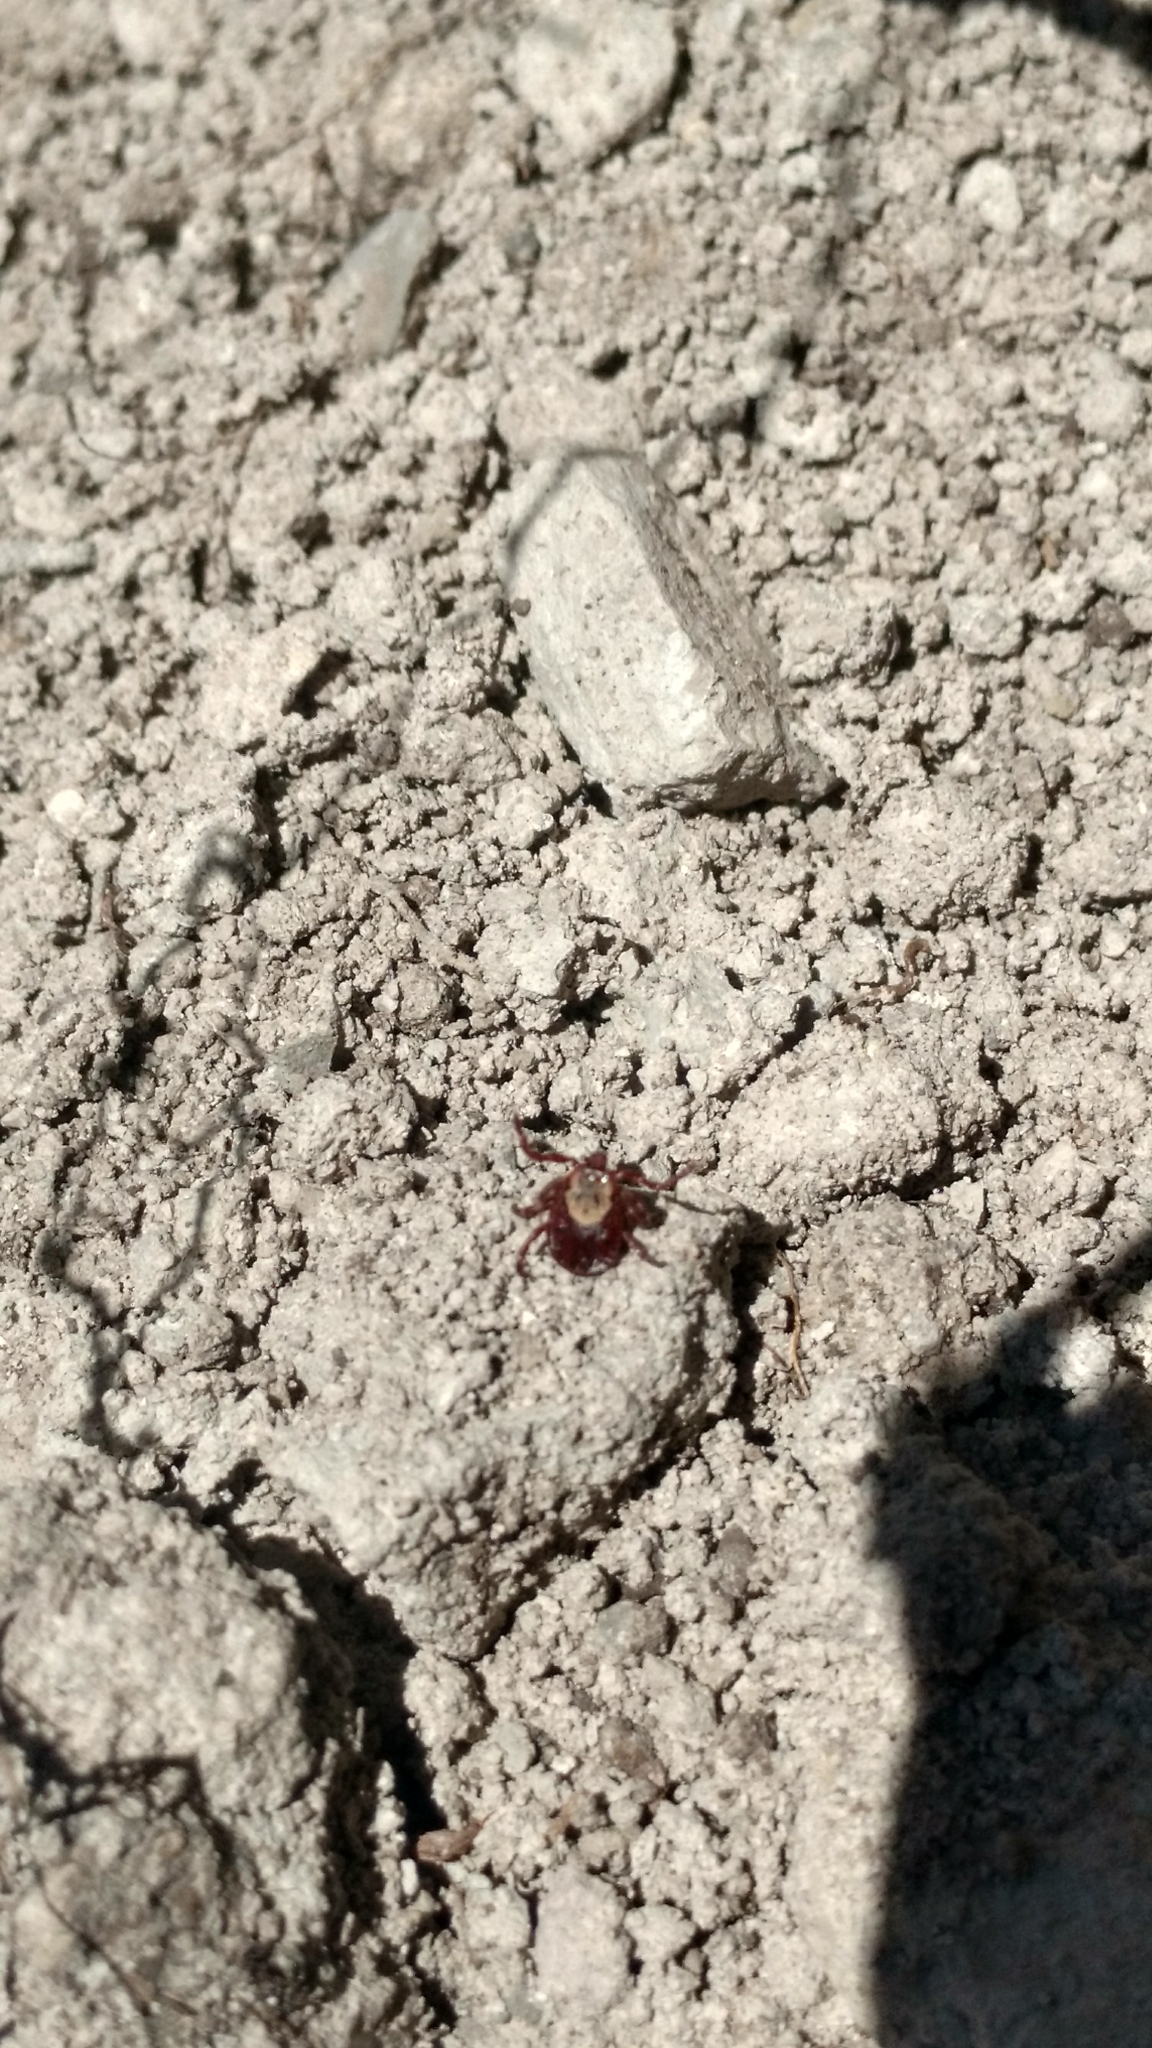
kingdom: Animalia
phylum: Arthropoda
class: Arachnida
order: Ixodida
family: Ixodidae
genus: Dermacentor
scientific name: Dermacentor andersoni
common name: Rocky mountain wood tick
